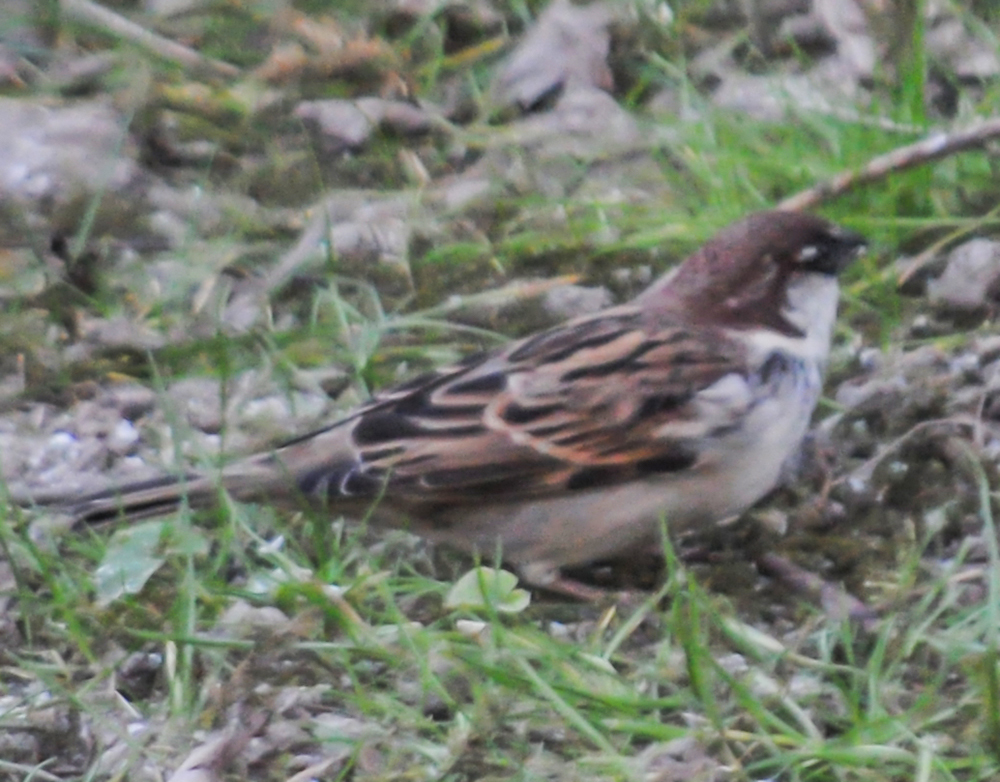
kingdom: Animalia
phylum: Chordata
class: Aves
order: Passeriformes
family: Passeridae
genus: Passer
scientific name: Passer italiae
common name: Italian sparrow
